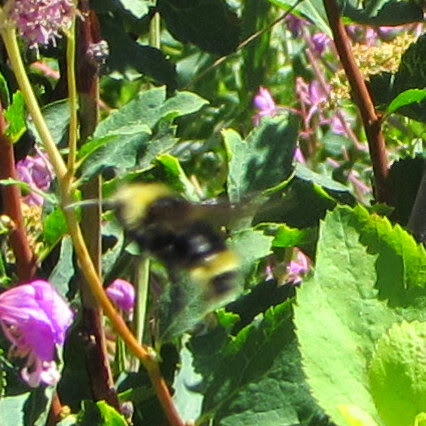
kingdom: Animalia
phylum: Arthropoda
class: Insecta
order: Hymenoptera
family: Apidae
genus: Bombus
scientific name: Bombus vosnesenskii
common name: Vosnesensky bumble bee
